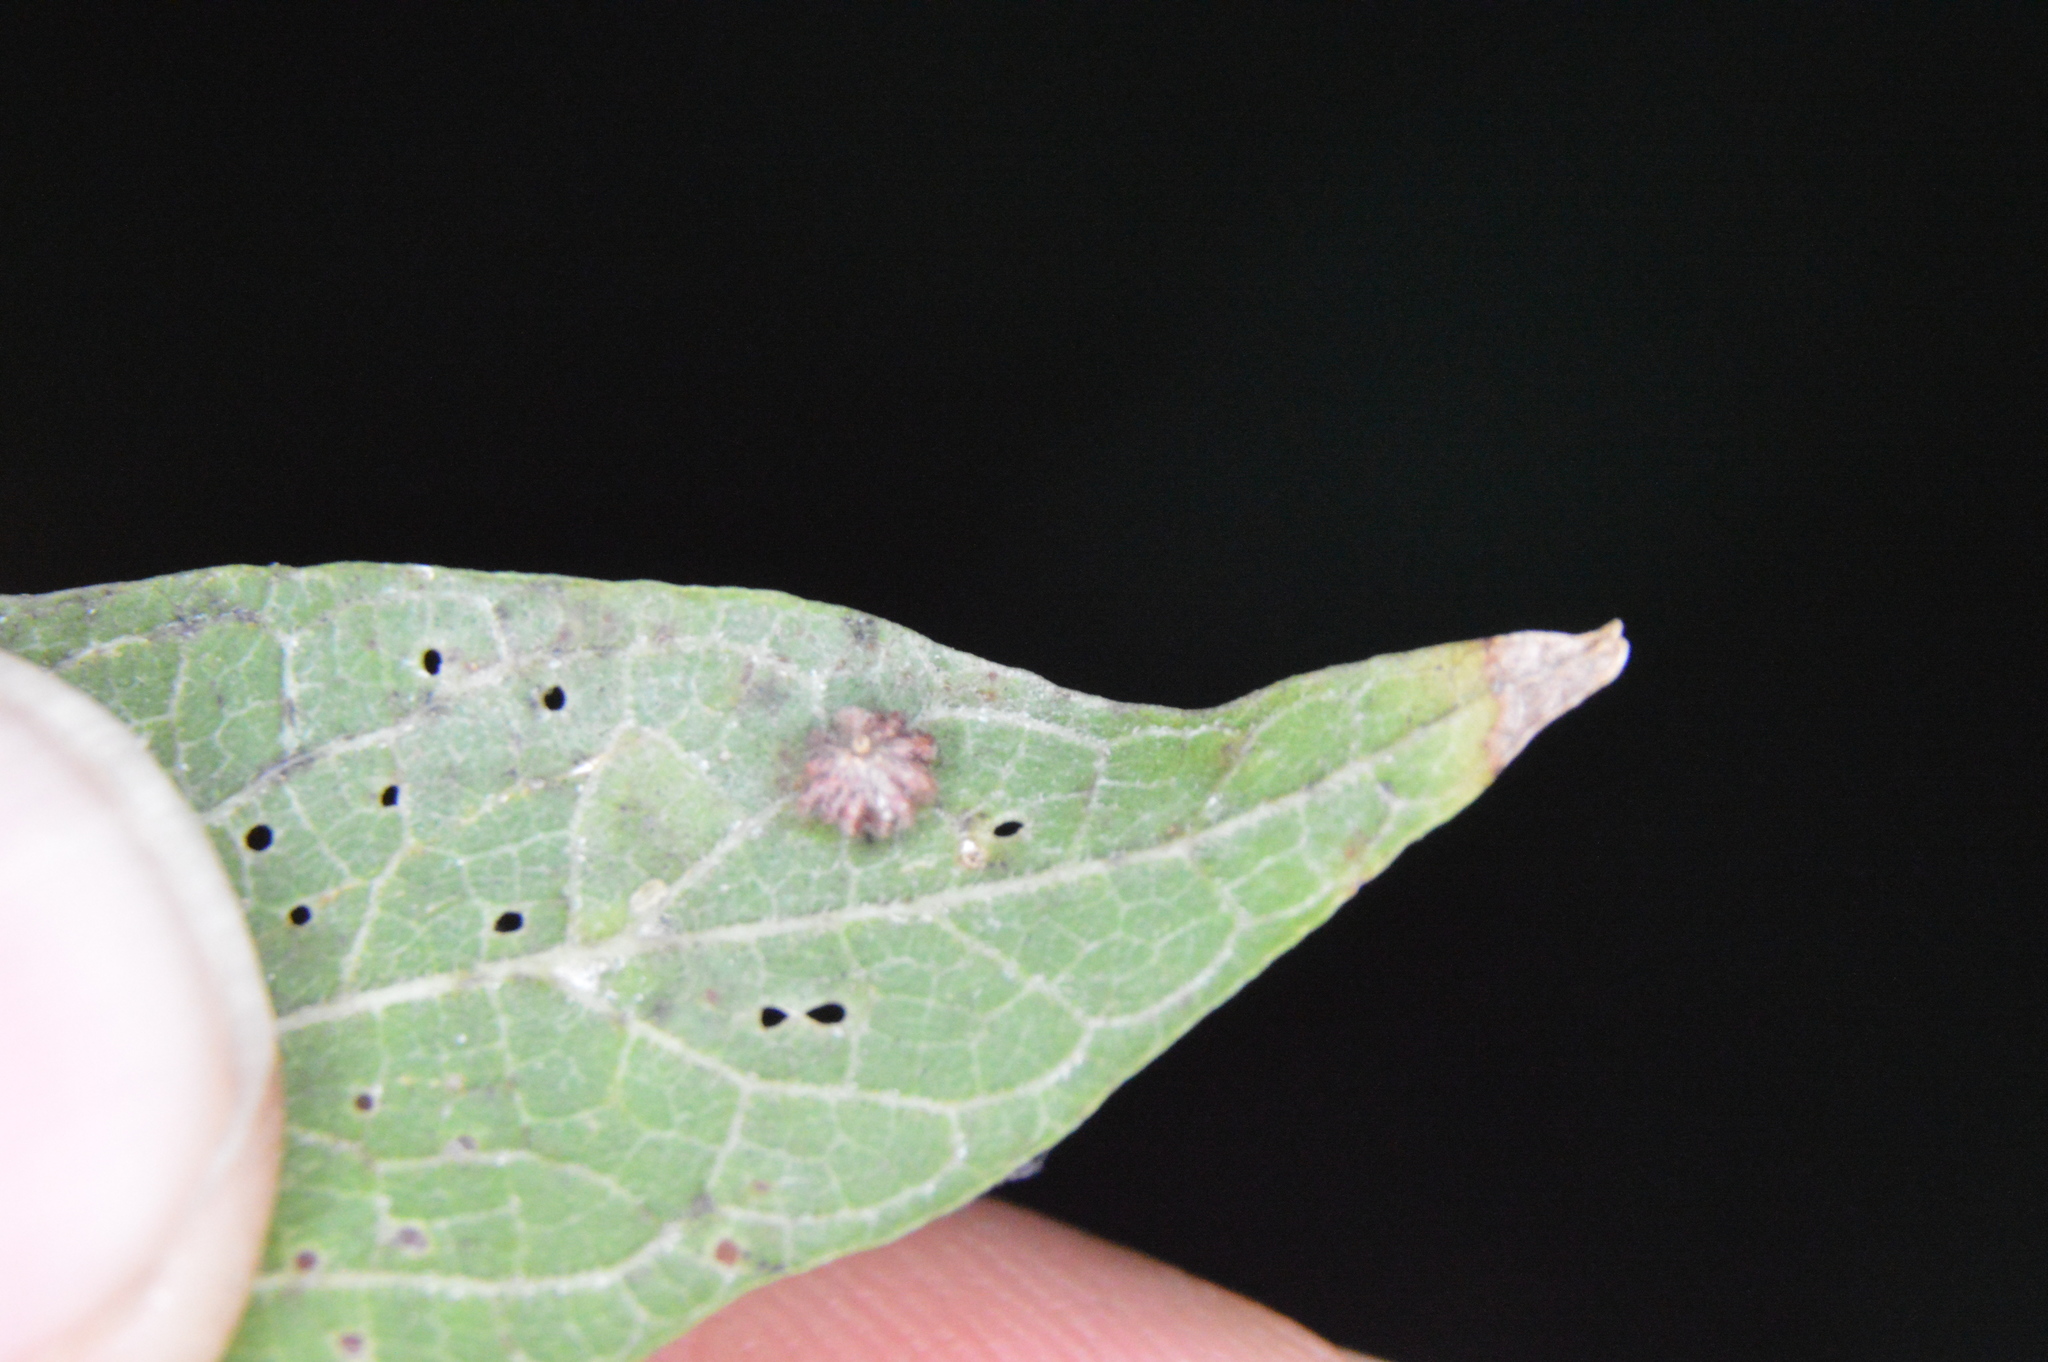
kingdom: Animalia
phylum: Arthropoda
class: Insecta
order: Diptera
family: Cecidomyiidae
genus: Celticecis
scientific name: Celticecis capsularis
